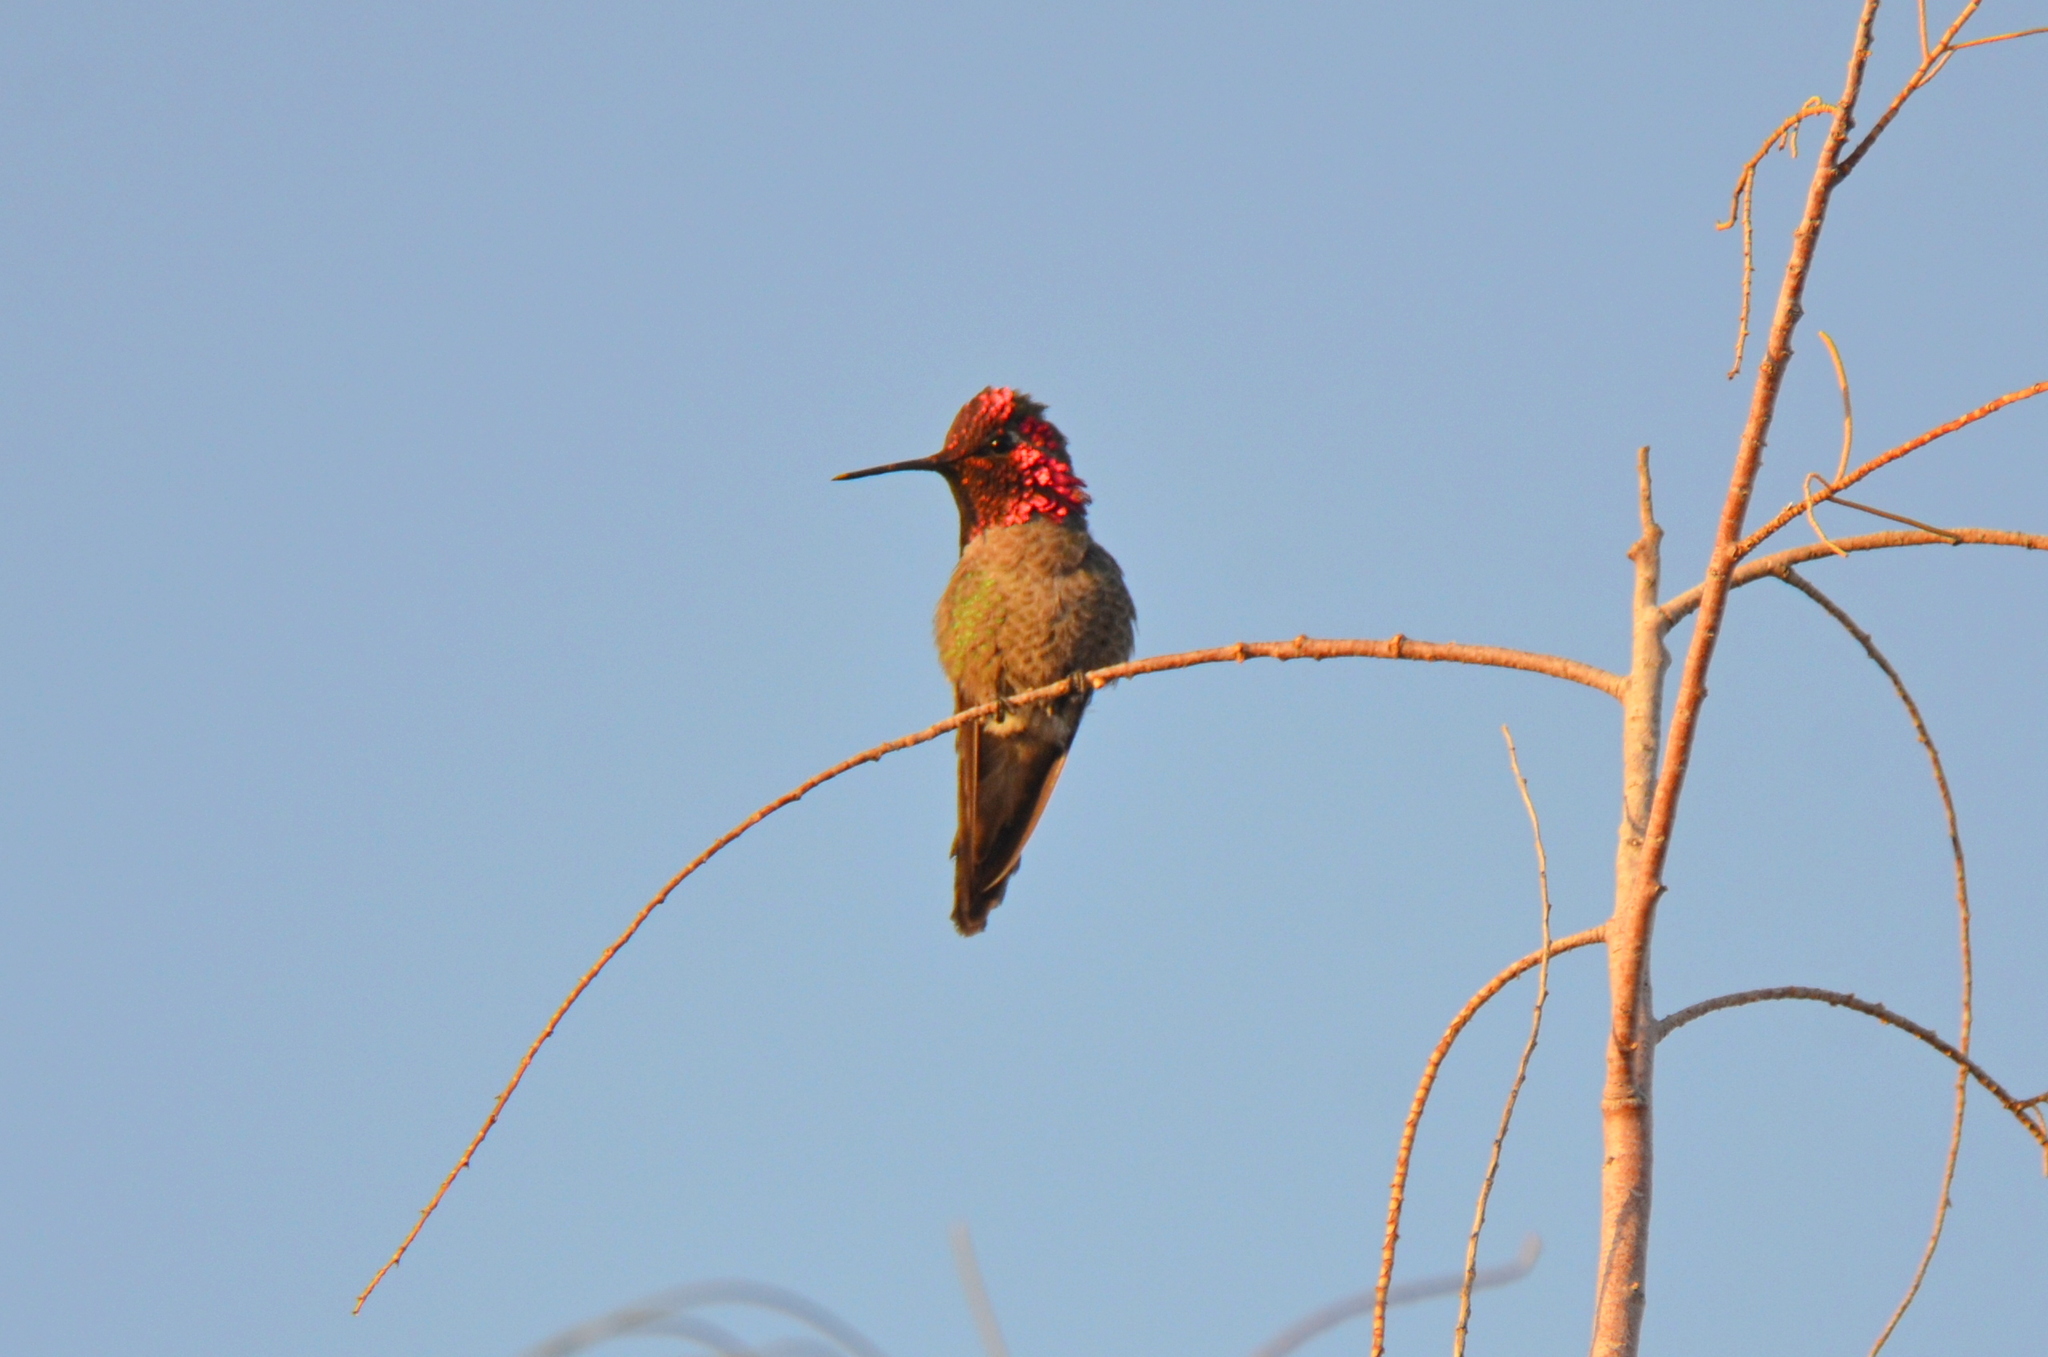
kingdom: Animalia
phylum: Chordata
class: Aves
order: Apodiformes
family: Trochilidae
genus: Calypte
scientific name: Calypte anna
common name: Anna's hummingbird
